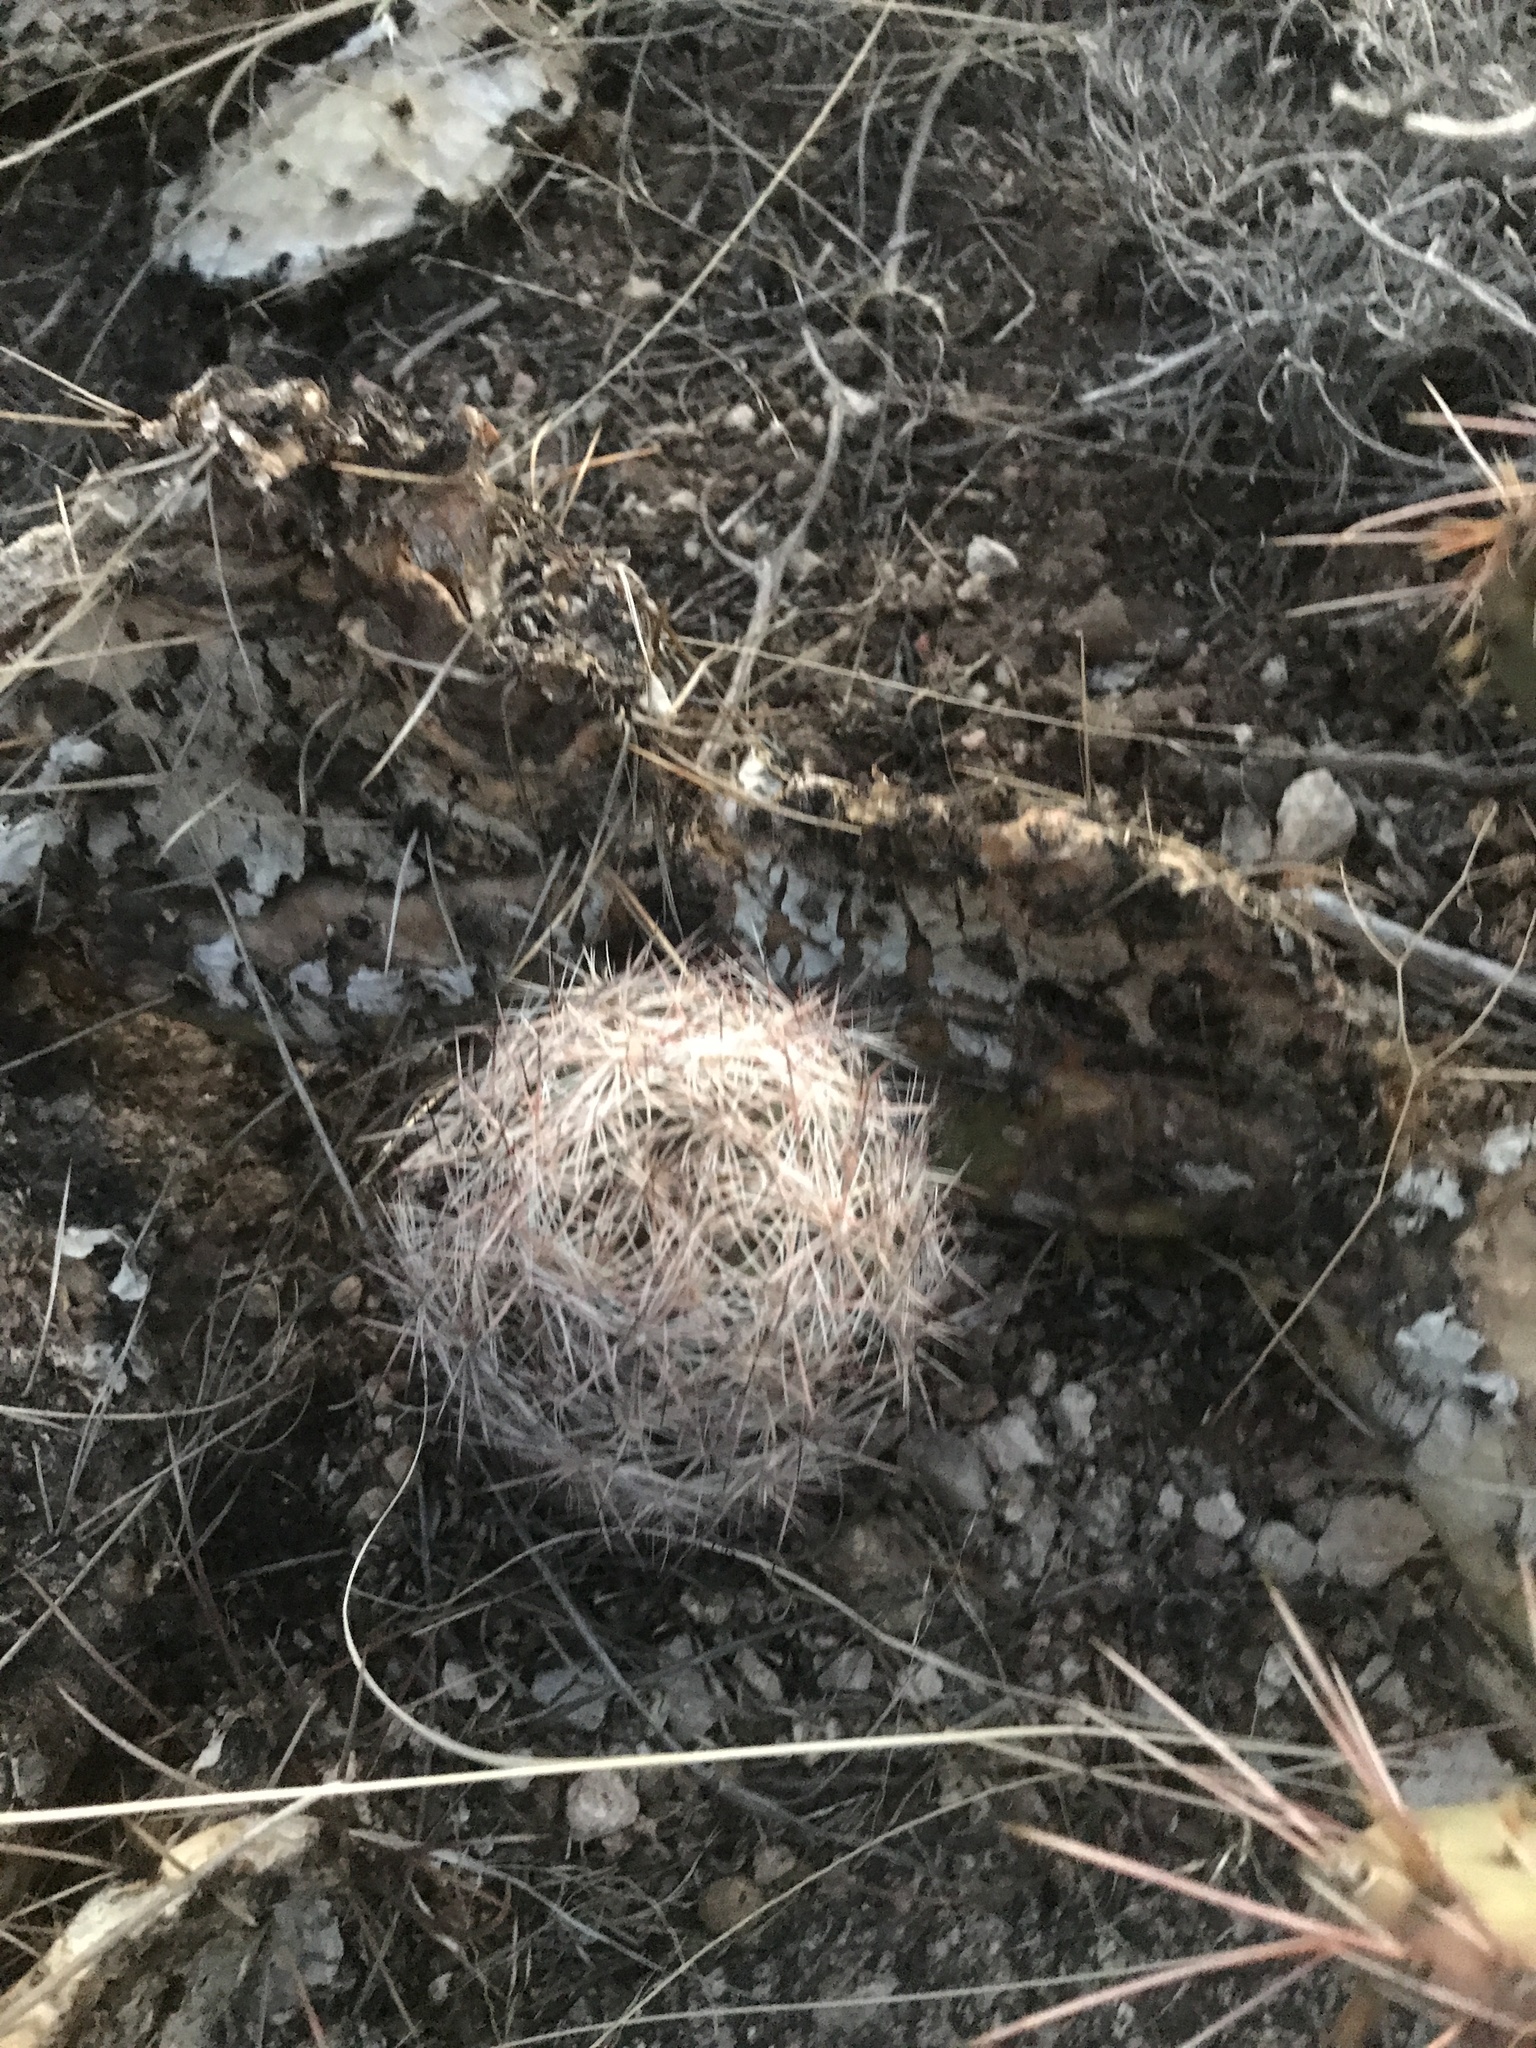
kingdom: Plantae
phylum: Tracheophyta
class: Magnoliopsida
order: Caryophyllales
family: Cactaceae
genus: Pelecyphora
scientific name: Pelecyphora vivipara
